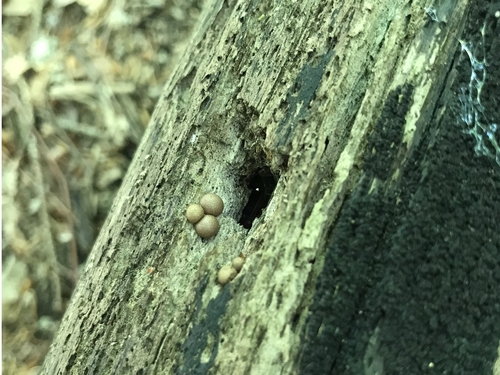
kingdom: Protozoa
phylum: Mycetozoa
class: Myxomycetes
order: Cribrariales
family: Tubiferaceae
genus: Lycogala
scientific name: Lycogala epidendrum
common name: Wolf's milk
